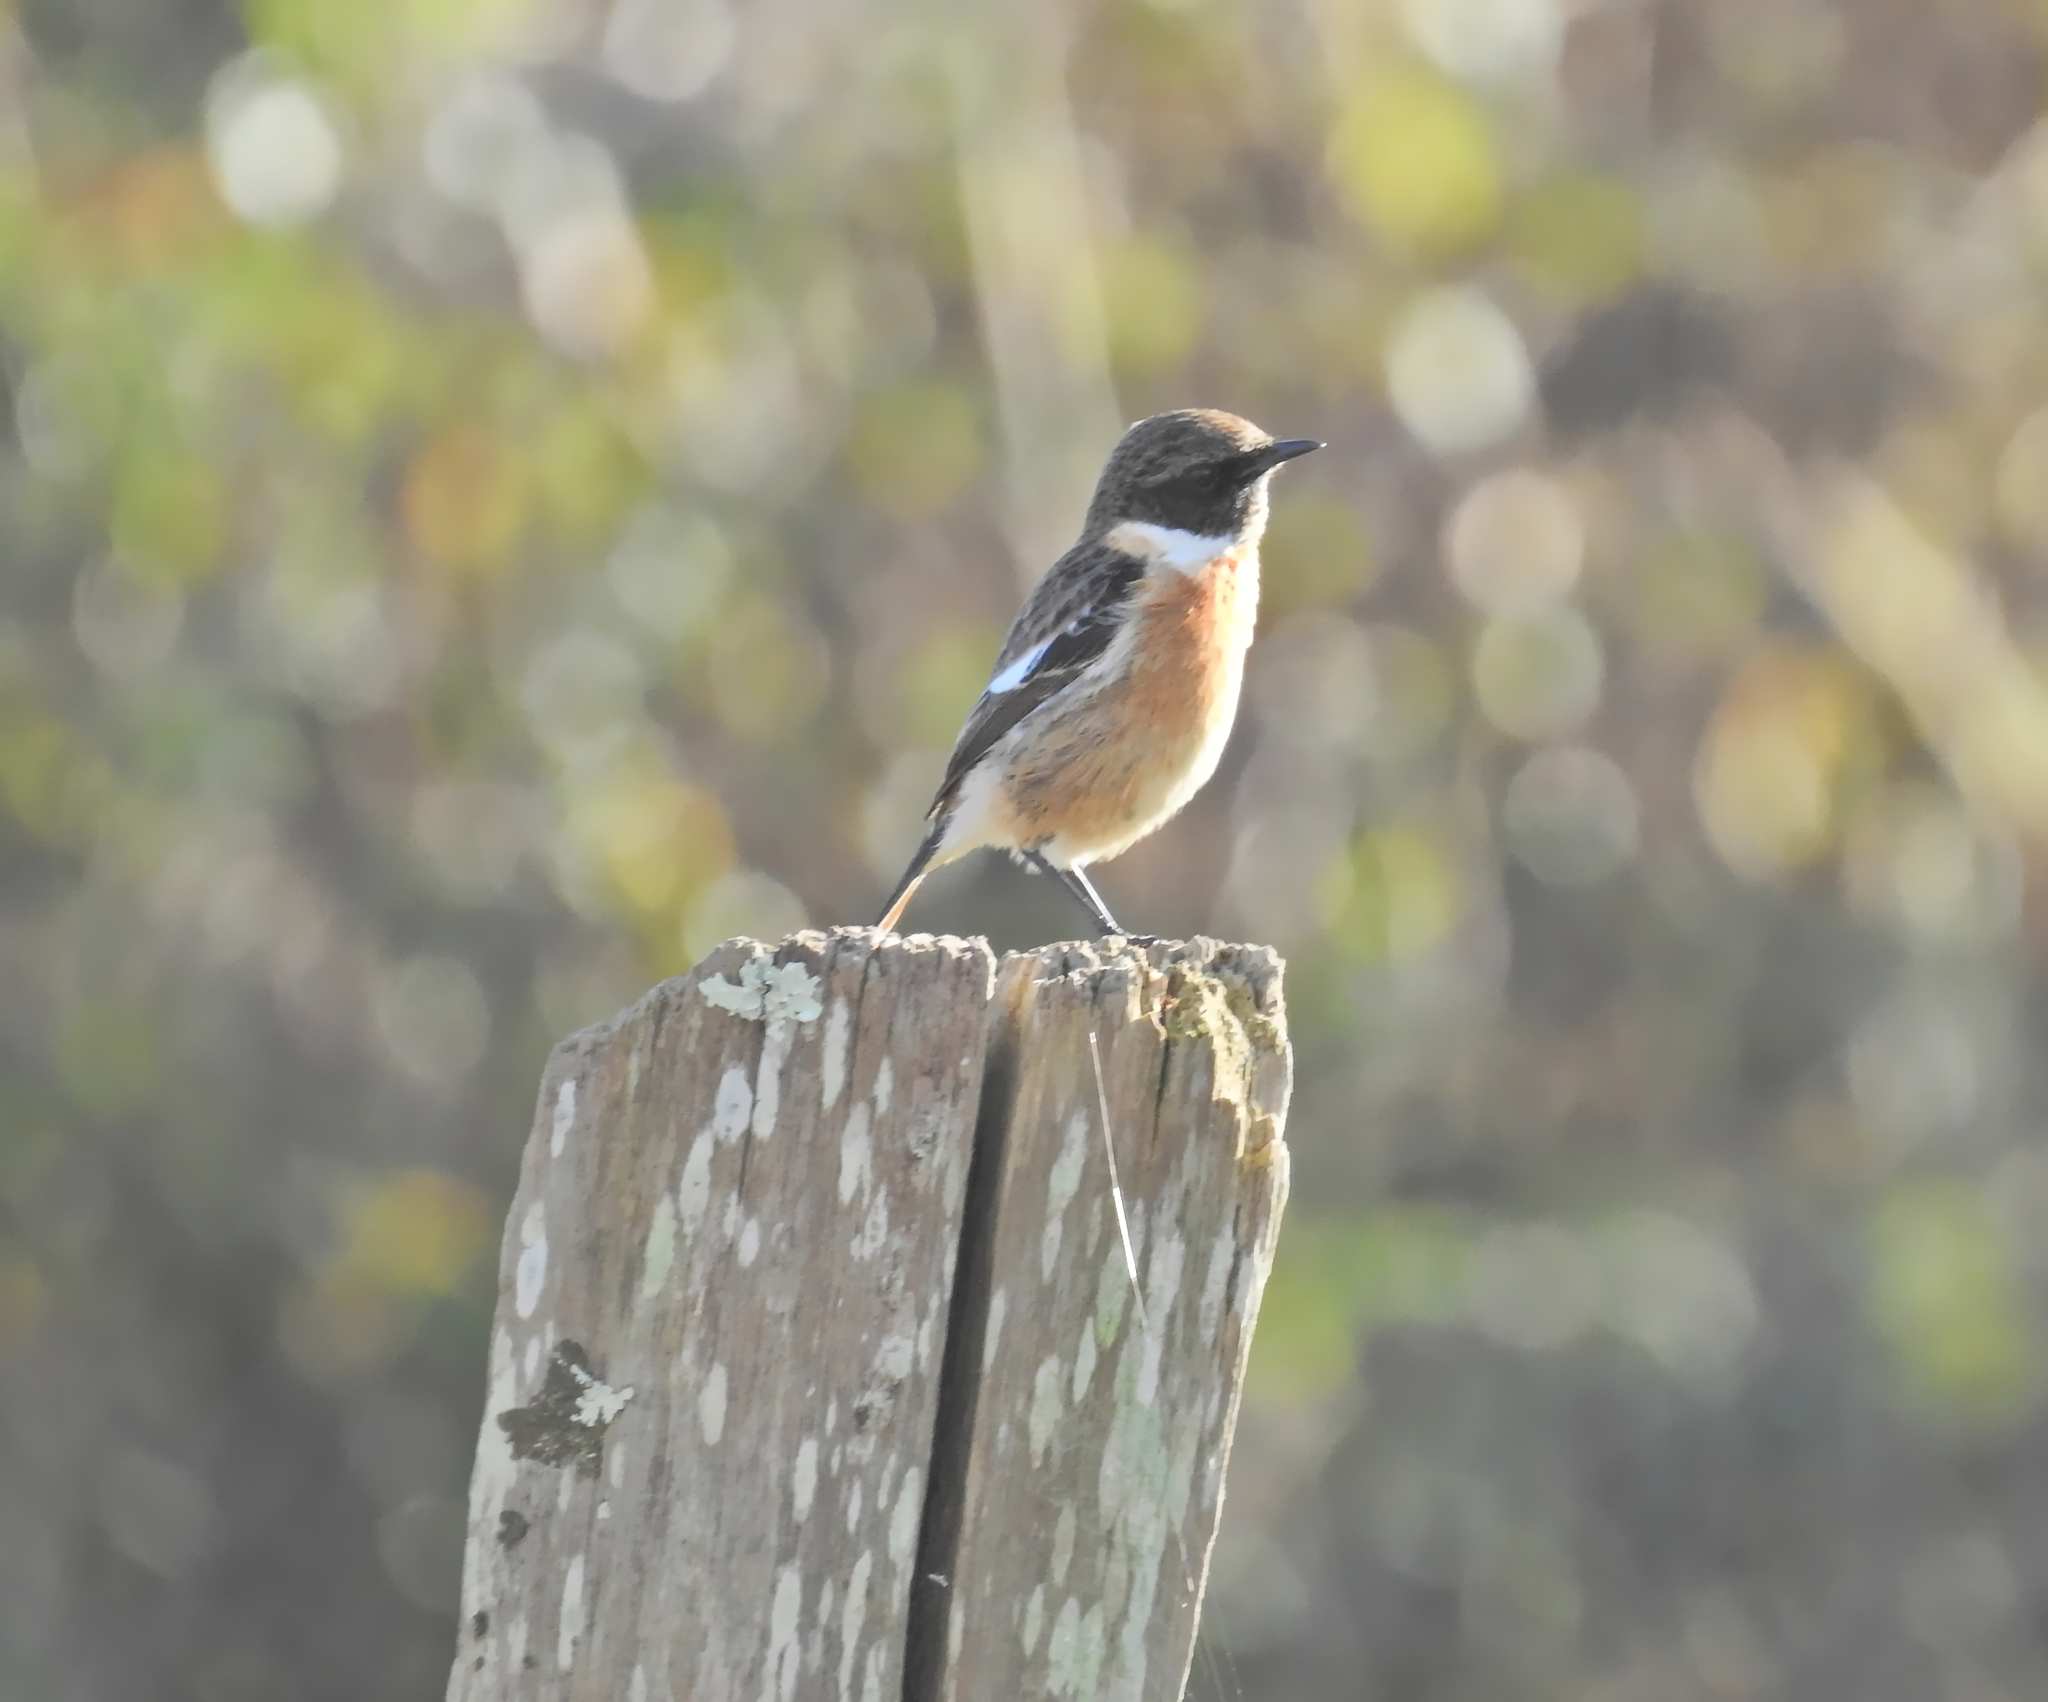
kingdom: Animalia
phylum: Chordata
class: Aves
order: Passeriformes
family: Muscicapidae
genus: Saxicola
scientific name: Saxicola rubicola
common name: European stonechat
